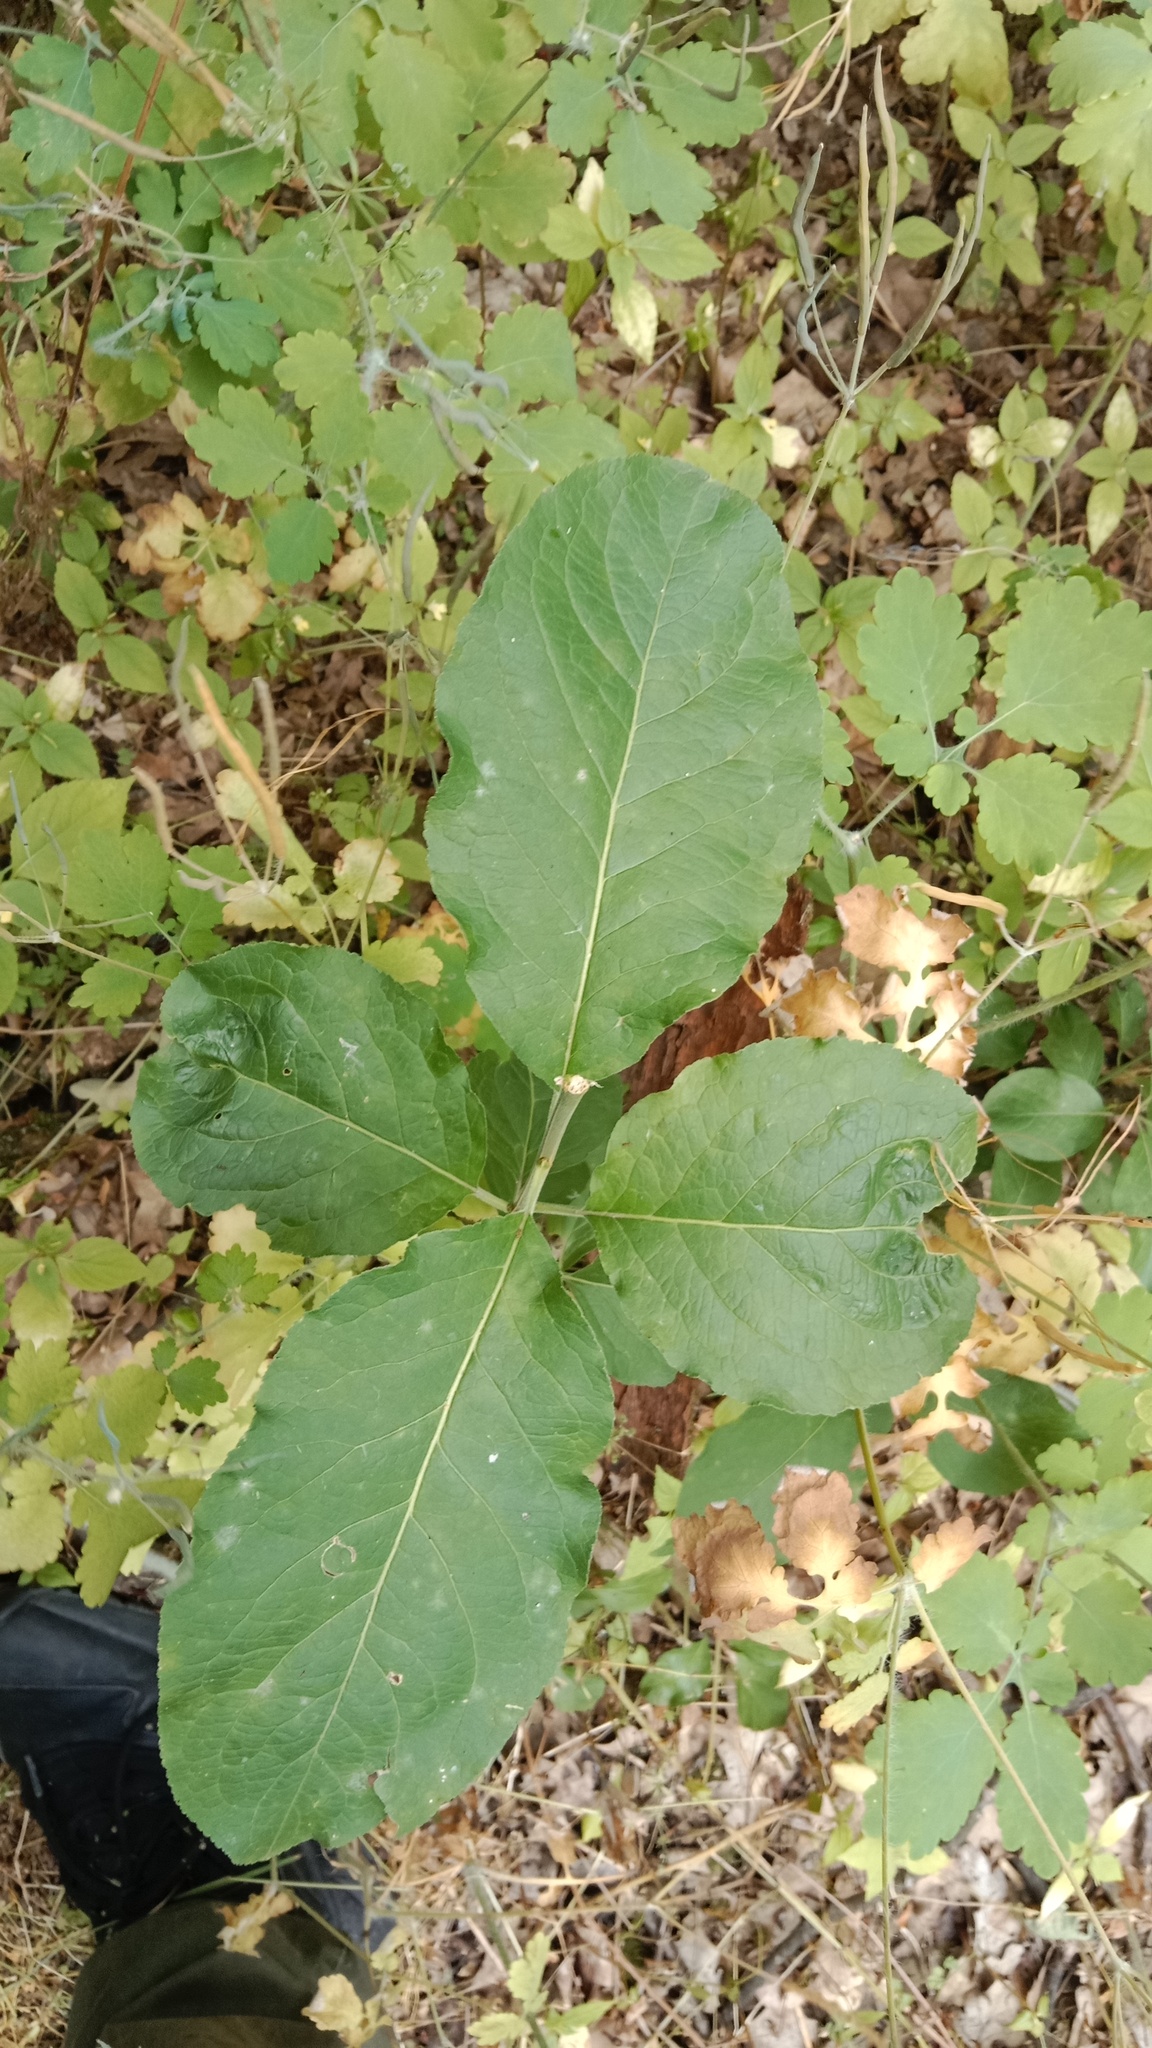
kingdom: Plantae
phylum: Tracheophyta
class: Magnoliopsida
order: Dipsacales
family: Viburnaceae
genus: Viburnum
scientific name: Viburnum lantana
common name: Wayfaring tree
